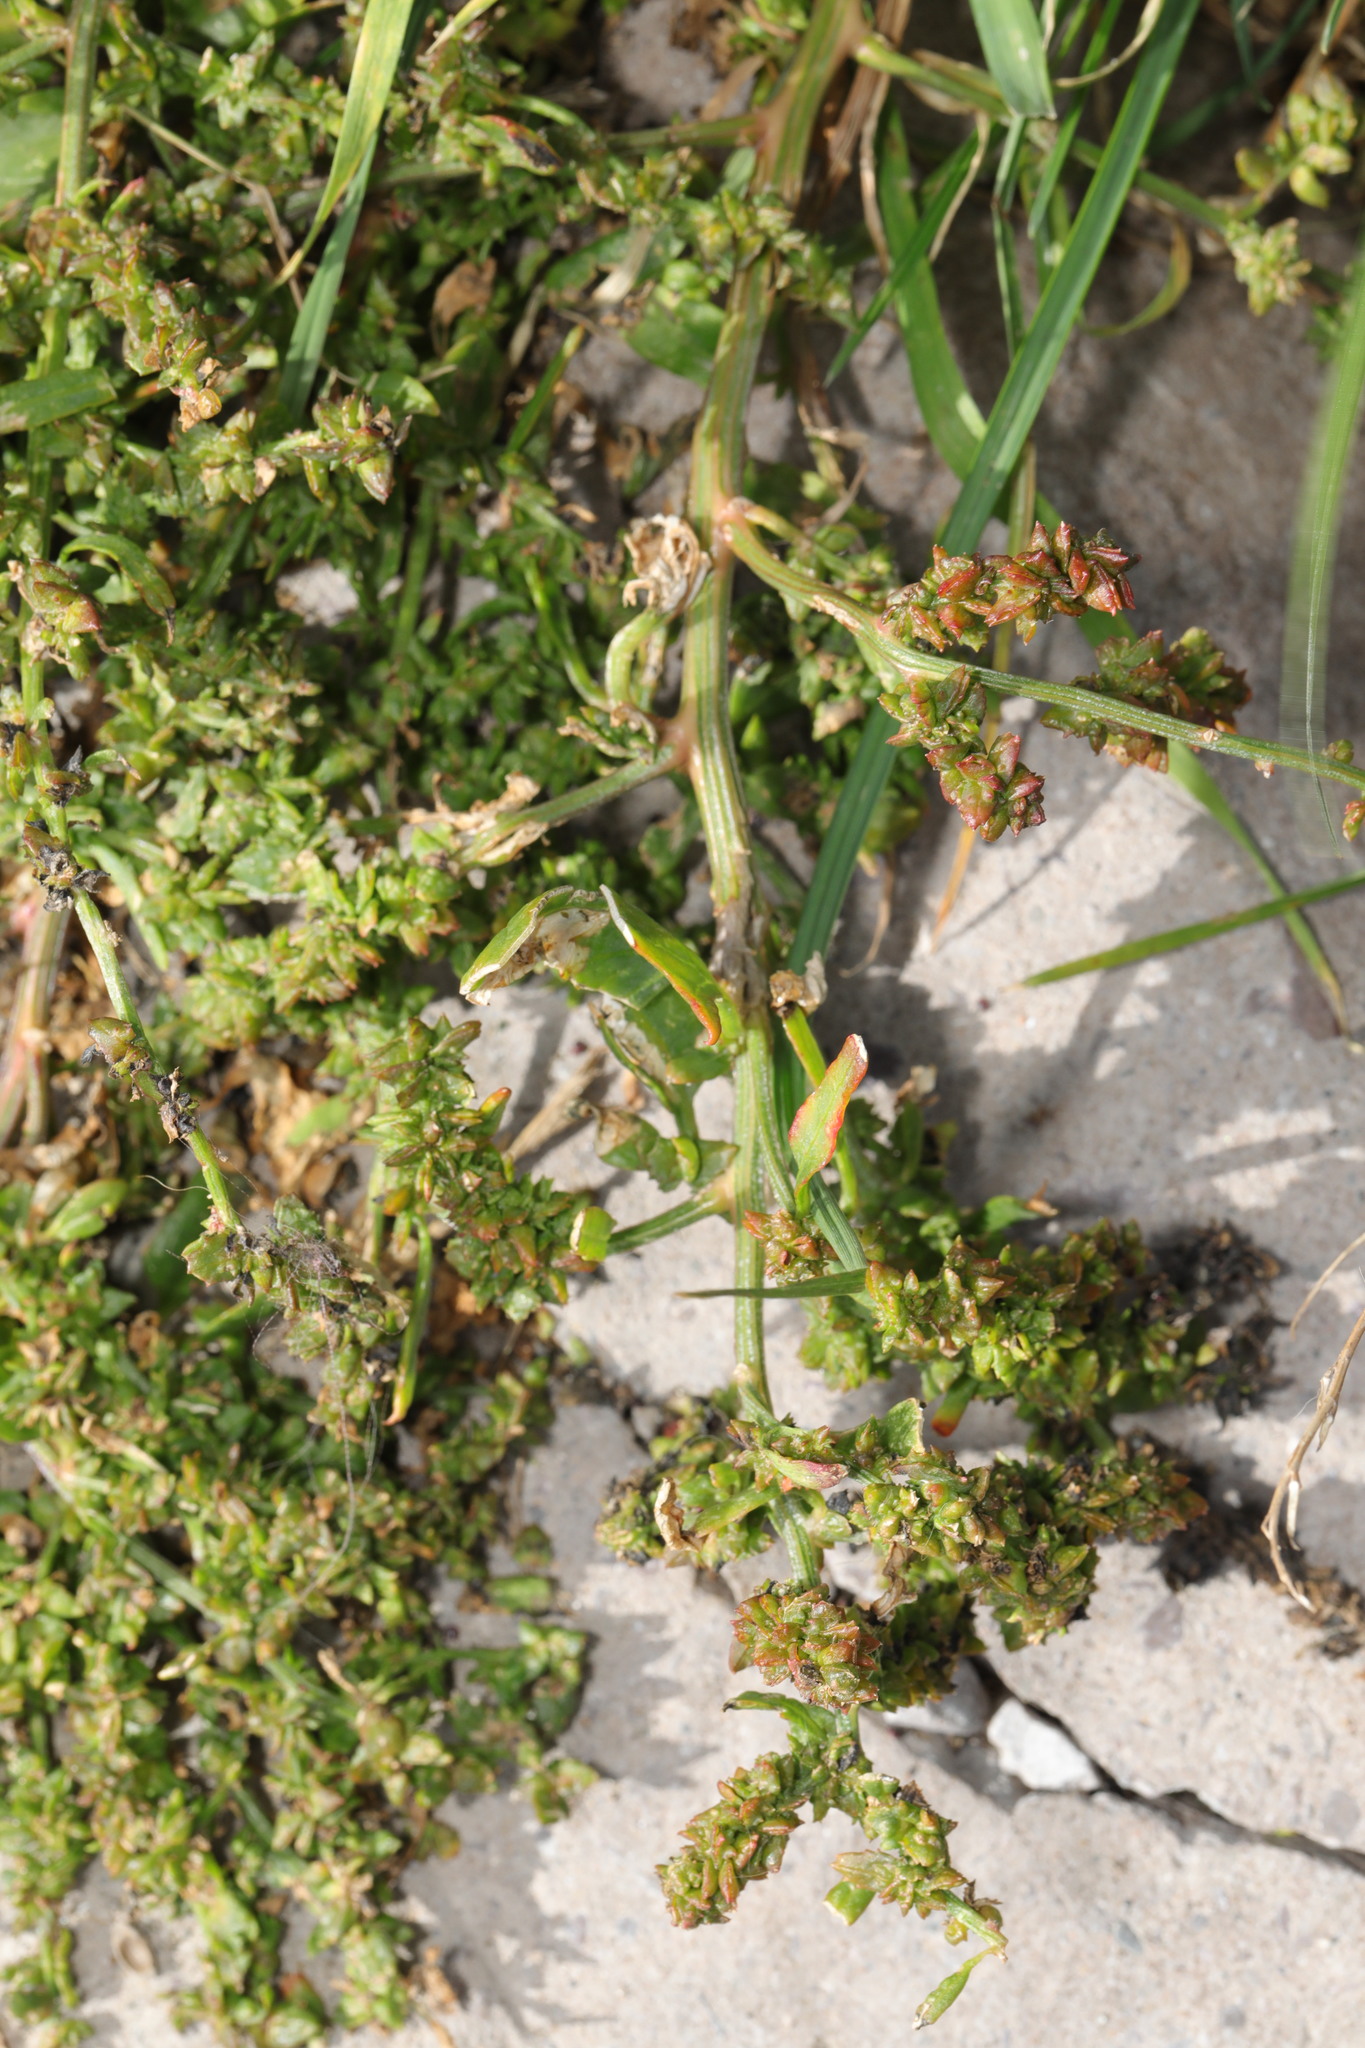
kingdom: Plantae
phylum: Tracheophyta
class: Magnoliopsida
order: Caryophyllales
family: Amaranthaceae
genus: Atriplex
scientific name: Atriplex patula
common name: Common orache
